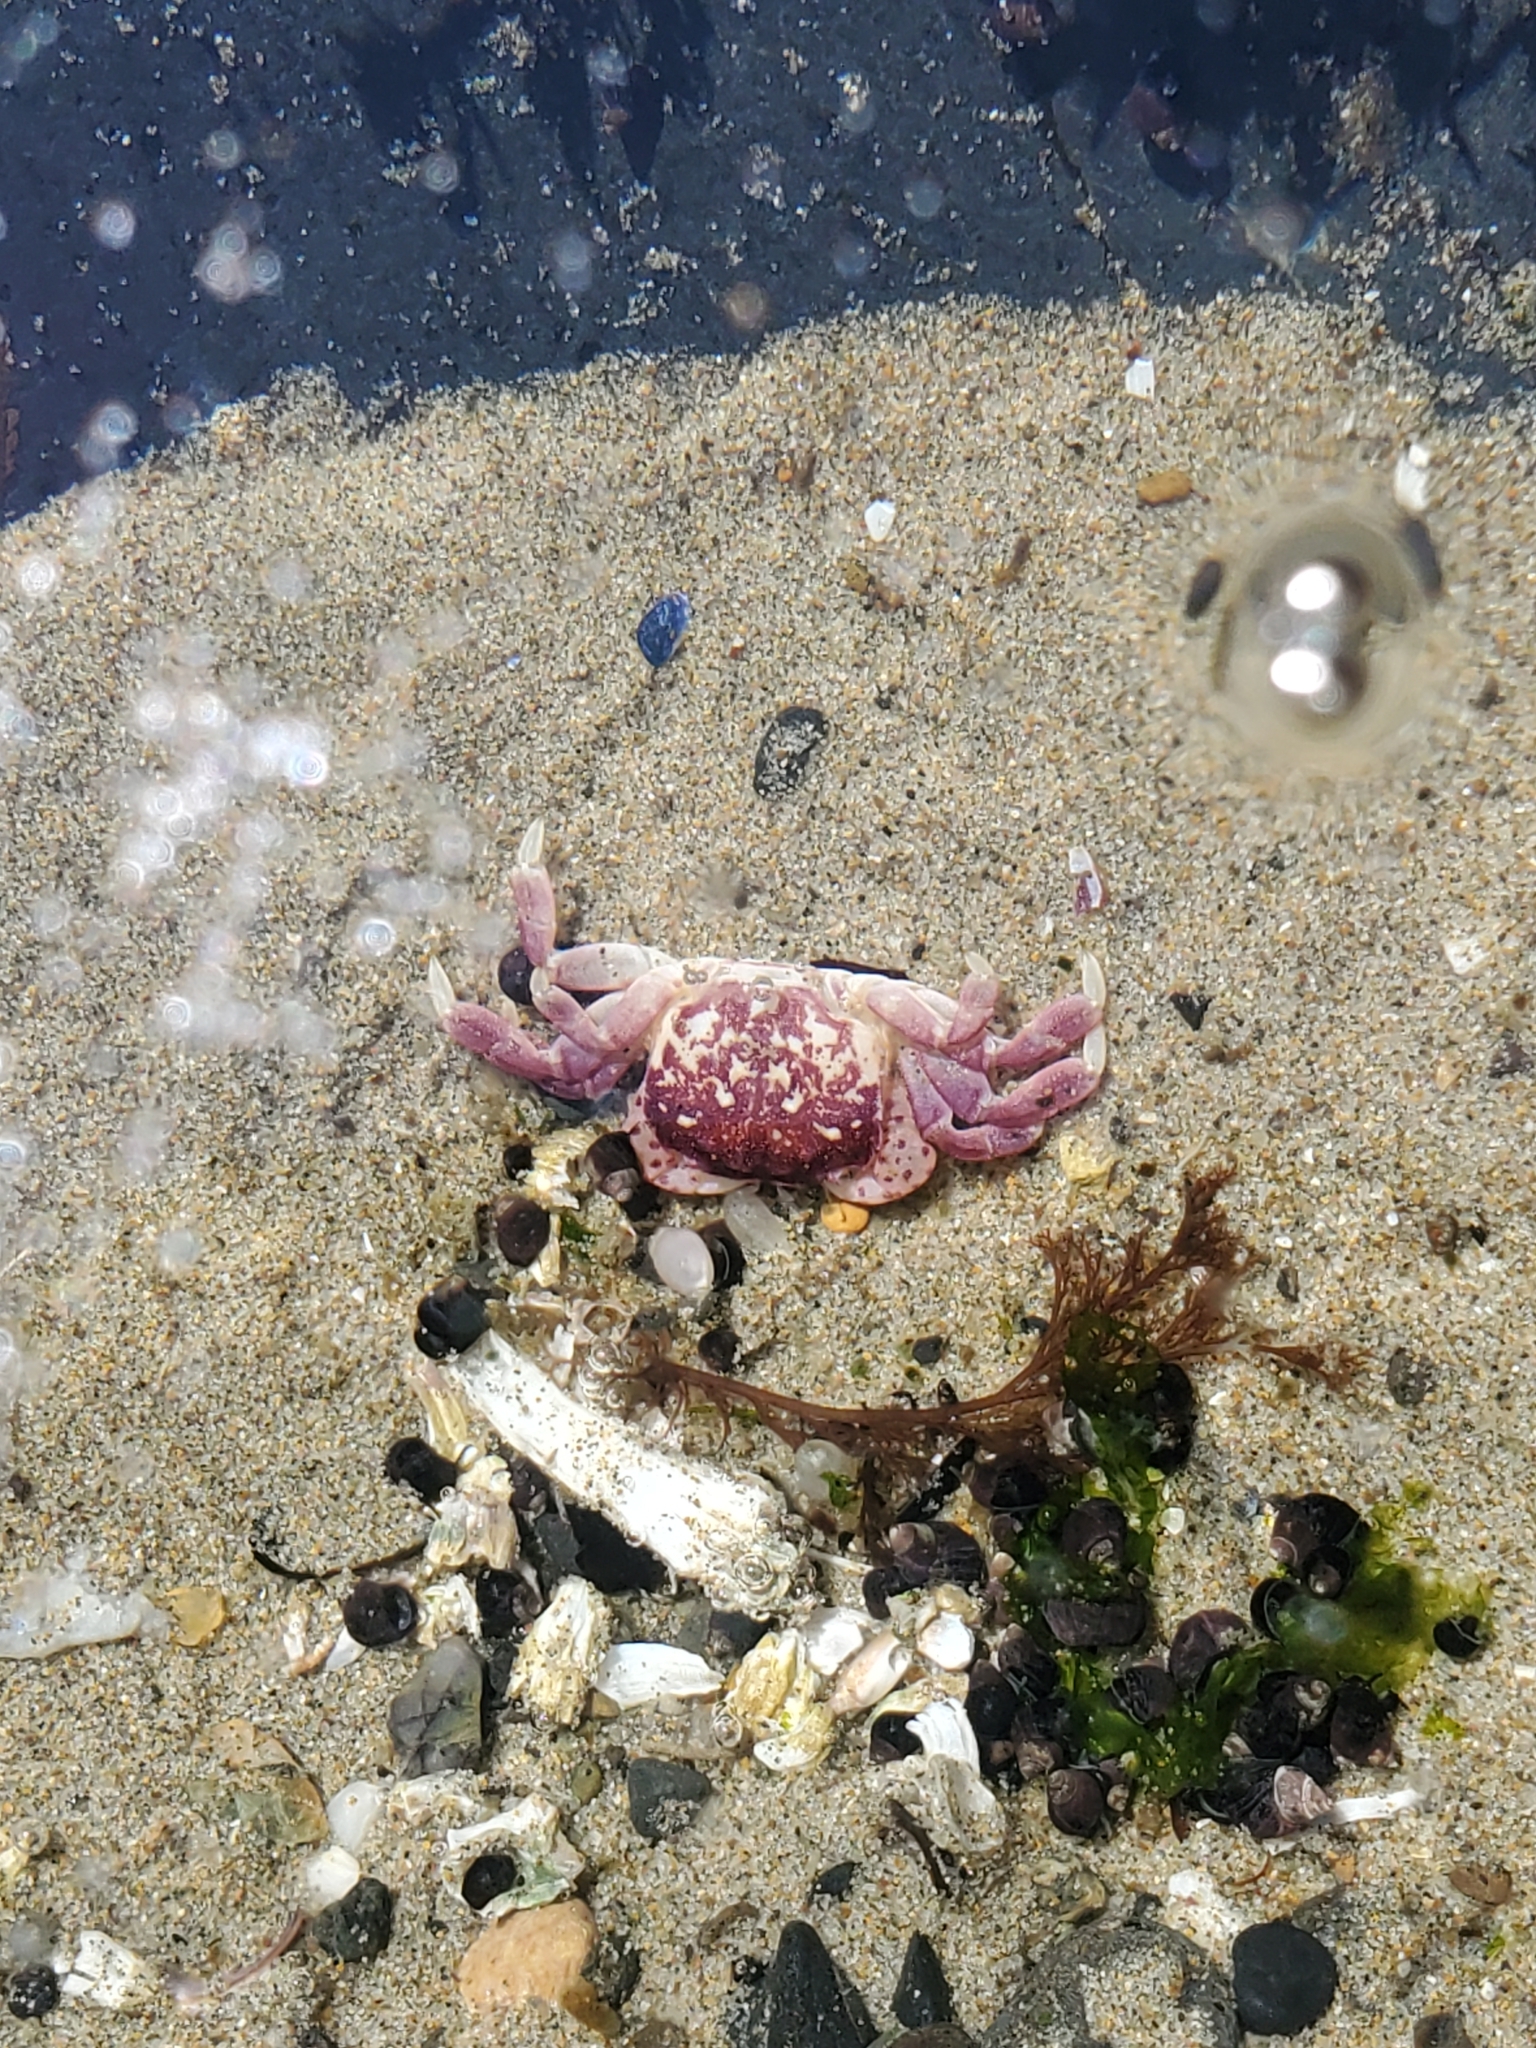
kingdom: Animalia
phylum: Arthropoda
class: Malacostraca
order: Decapoda
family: Varunidae
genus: Hemigrapsus
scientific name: Hemigrapsus nudus
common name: Purple shore crab
